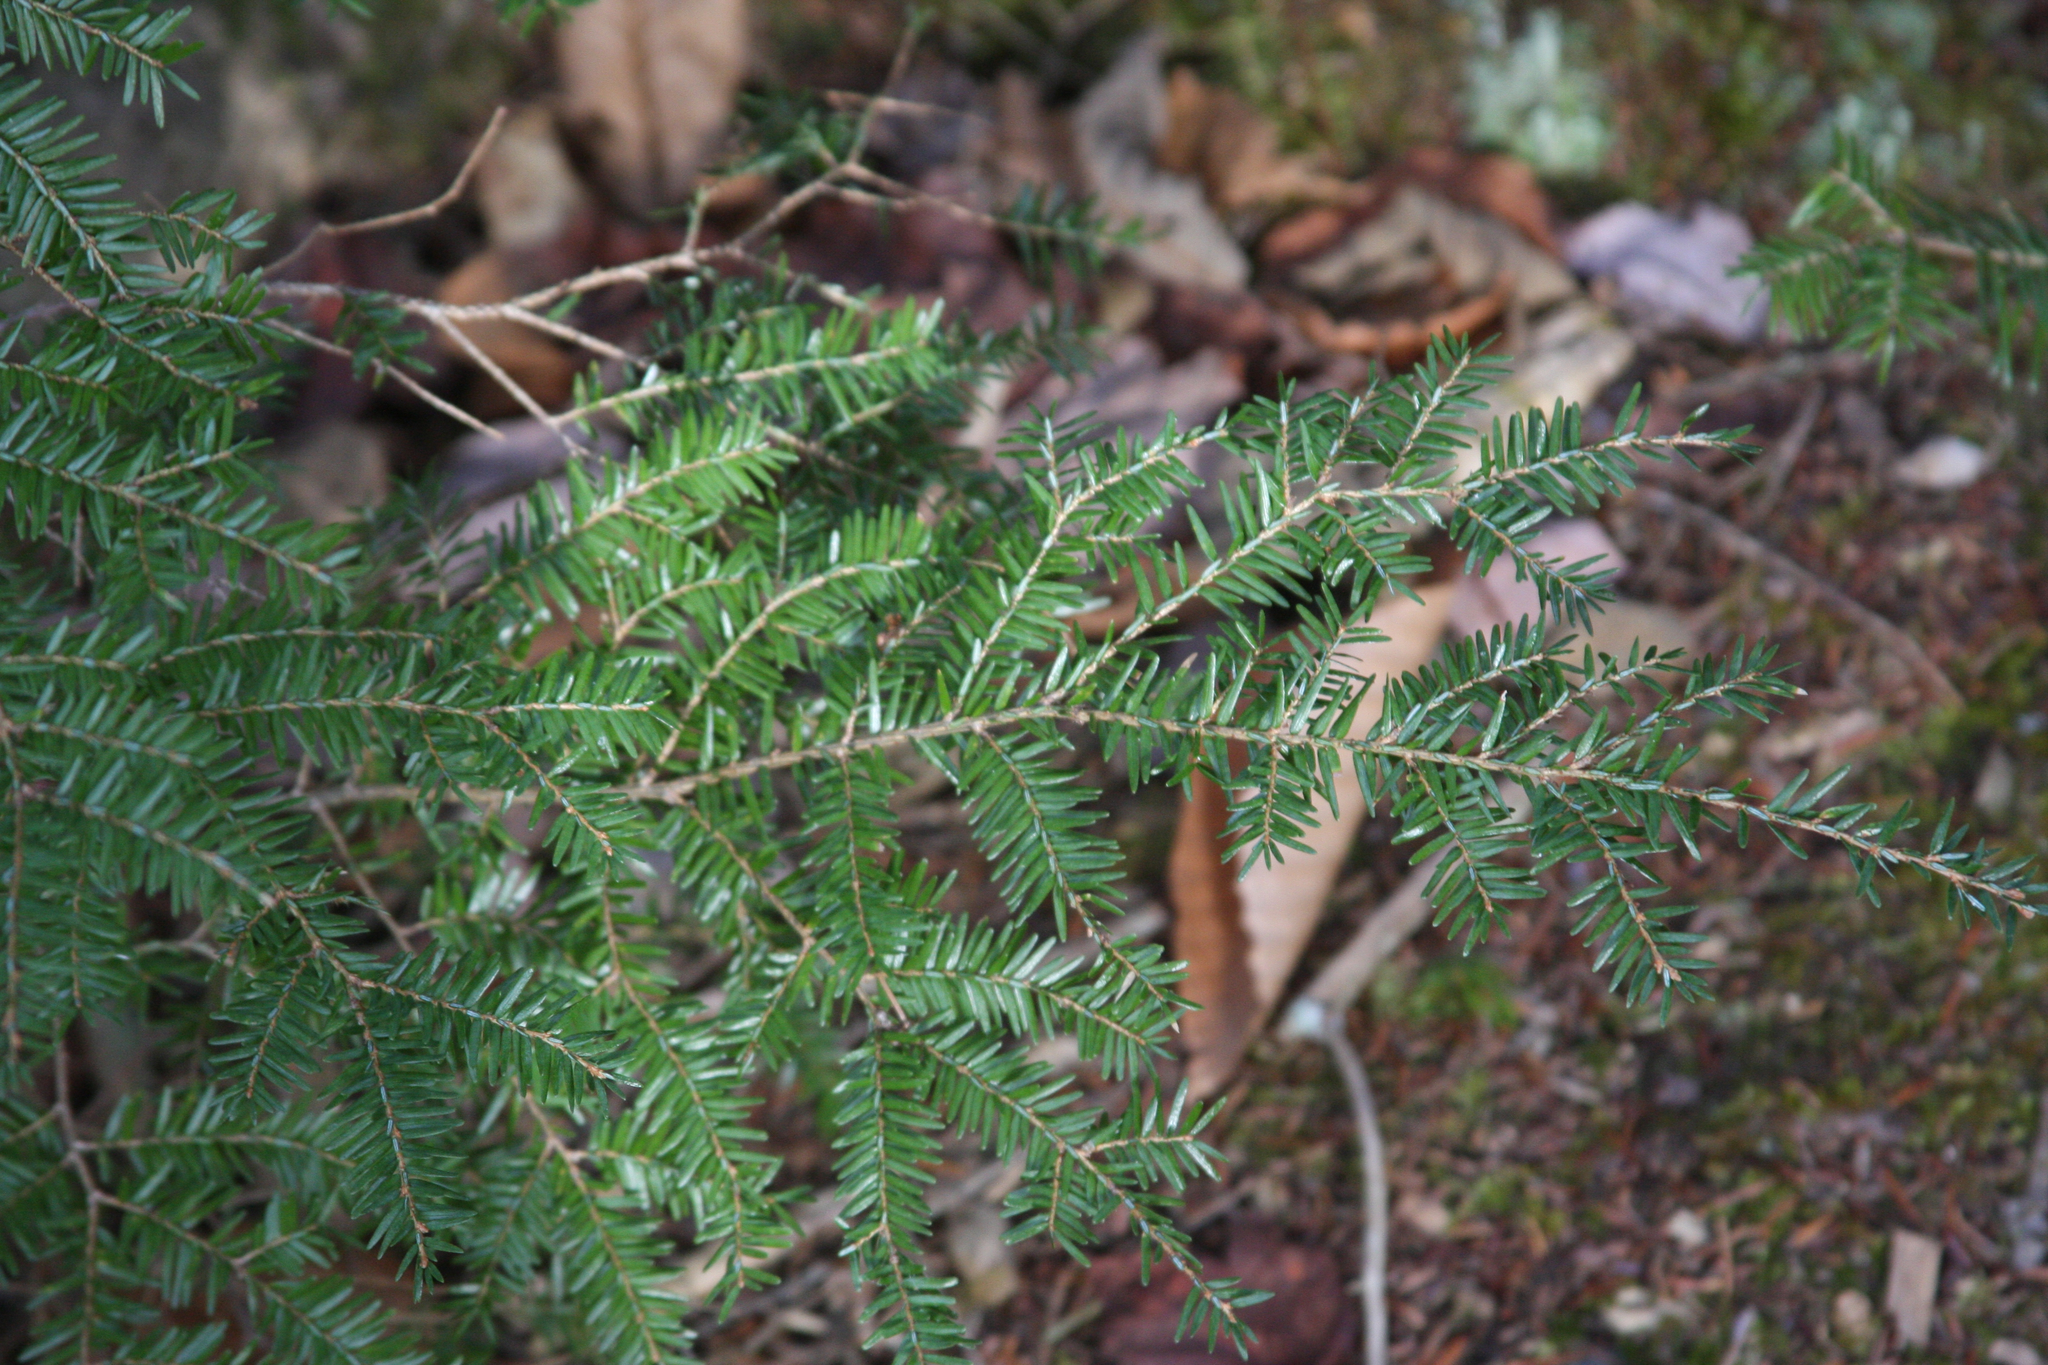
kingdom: Plantae
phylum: Tracheophyta
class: Pinopsida
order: Pinales
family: Pinaceae
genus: Tsuga
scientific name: Tsuga canadensis
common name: Eastern hemlock
